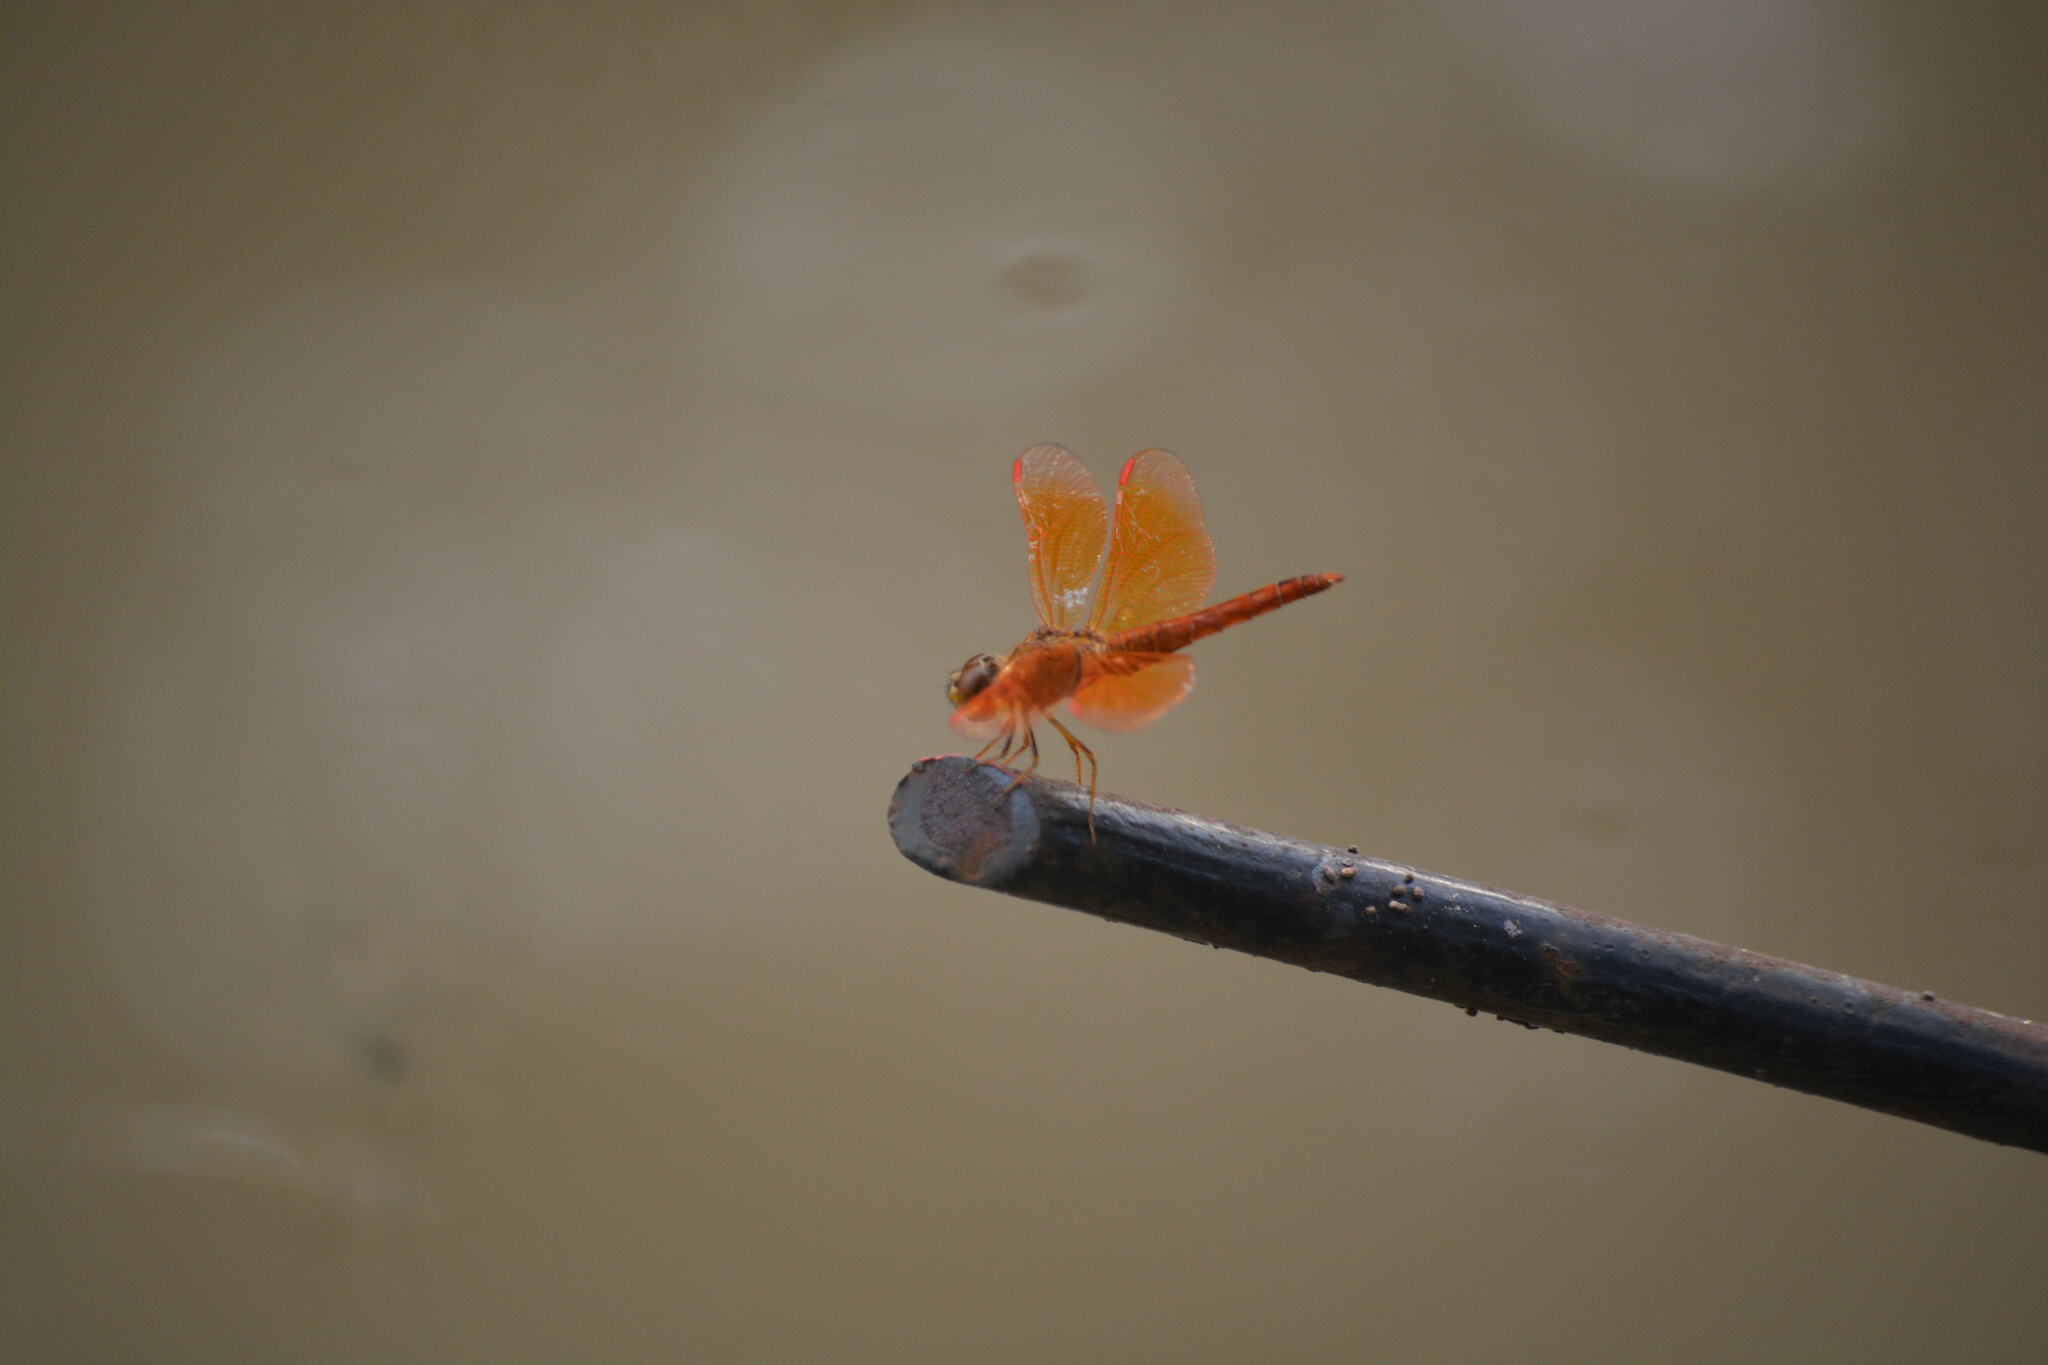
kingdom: Animalia
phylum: Arthropoda
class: Insecta
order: Odonata
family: Libellulidae
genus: Brachythemis
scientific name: Brachythemis contaminata
